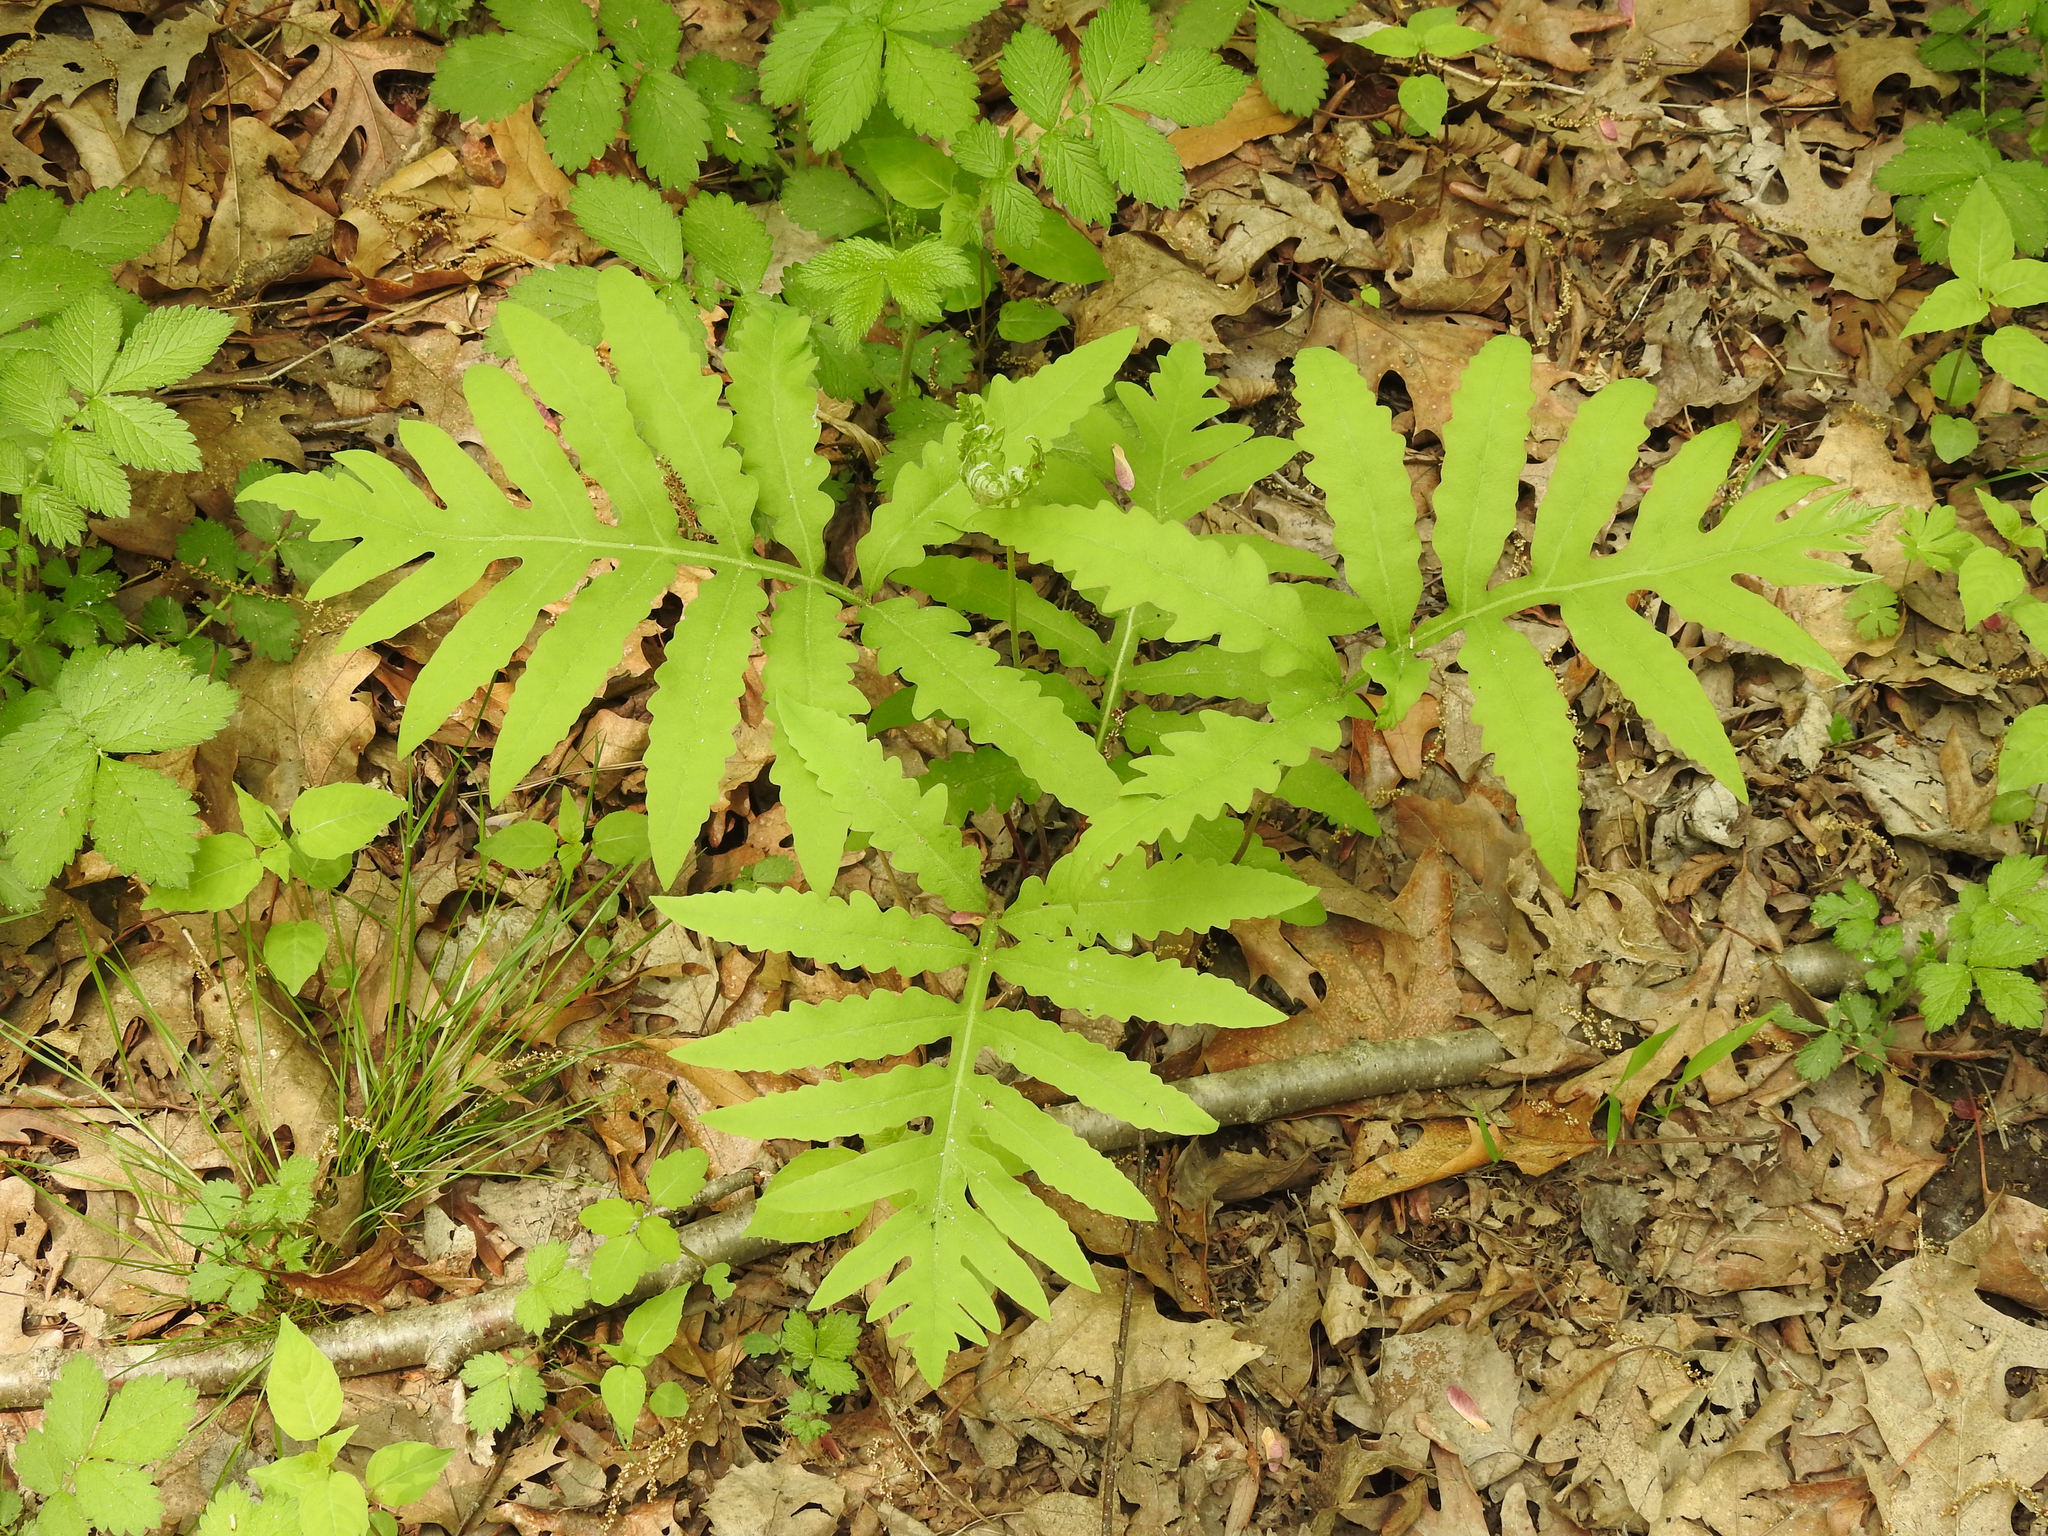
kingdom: Plantae
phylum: Tracheophyta
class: Polypodiopsida
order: Polypodiales
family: Onocleaceae
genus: Onoclea
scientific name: Onoclea sensibilis
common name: Sensitive fern
